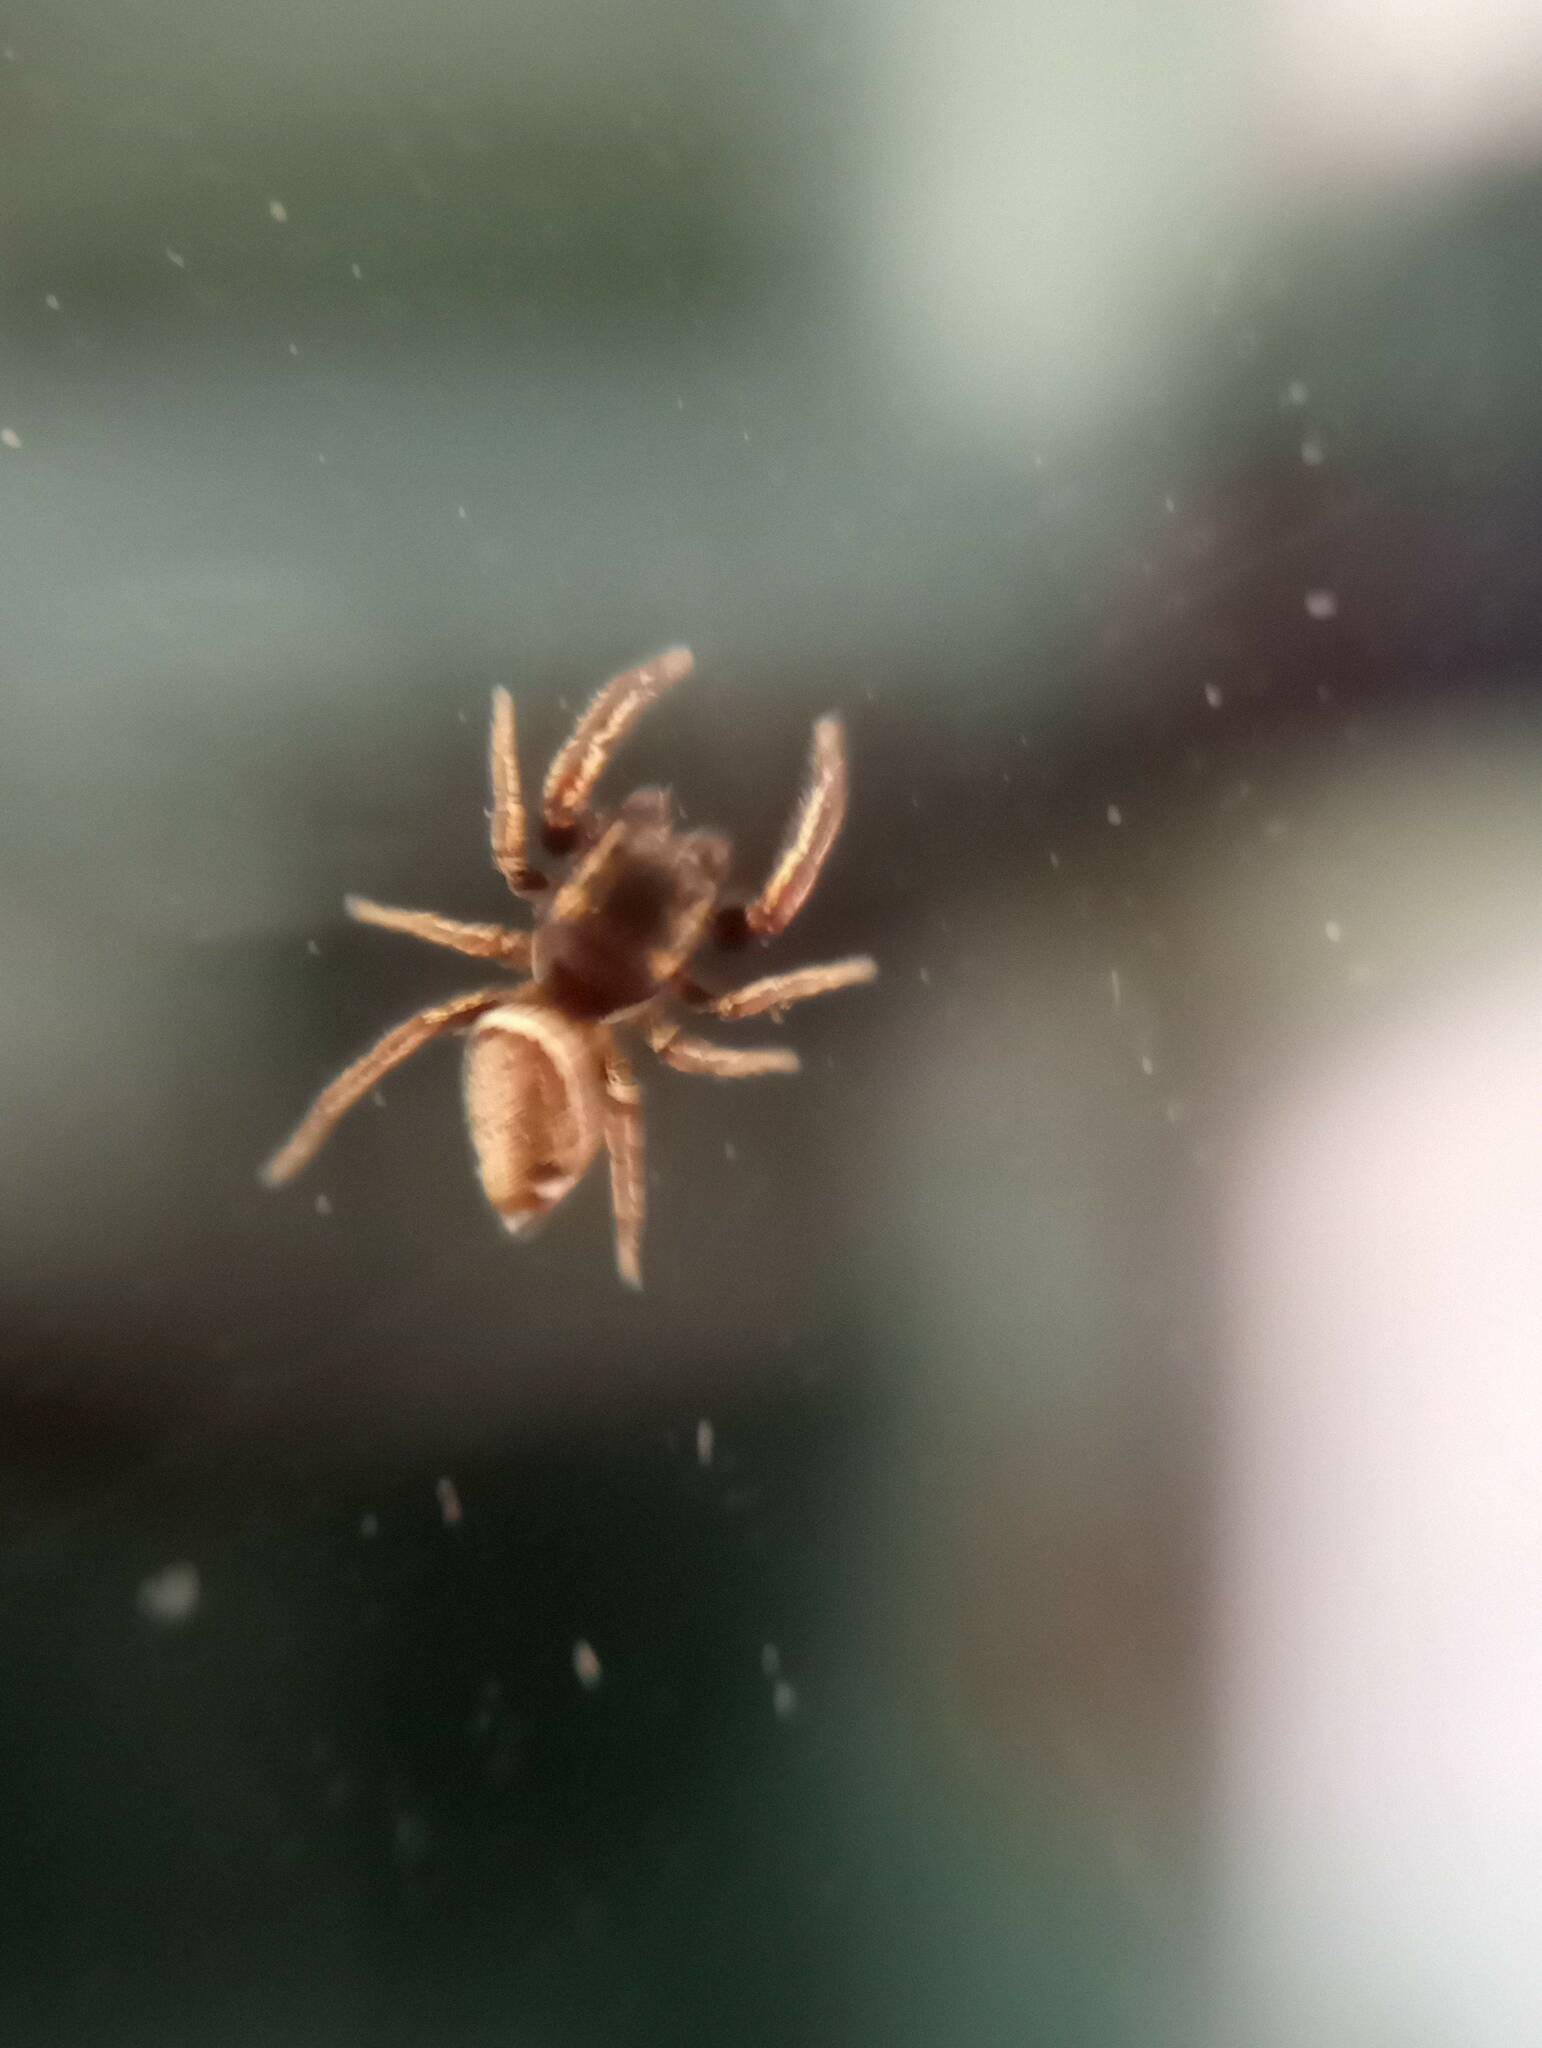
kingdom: Animalia
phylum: Arthropoda
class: Arachnida
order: Araneae
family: Salticidae
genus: Sassacus
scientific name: Sassacus vitis
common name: Jumping spiders
